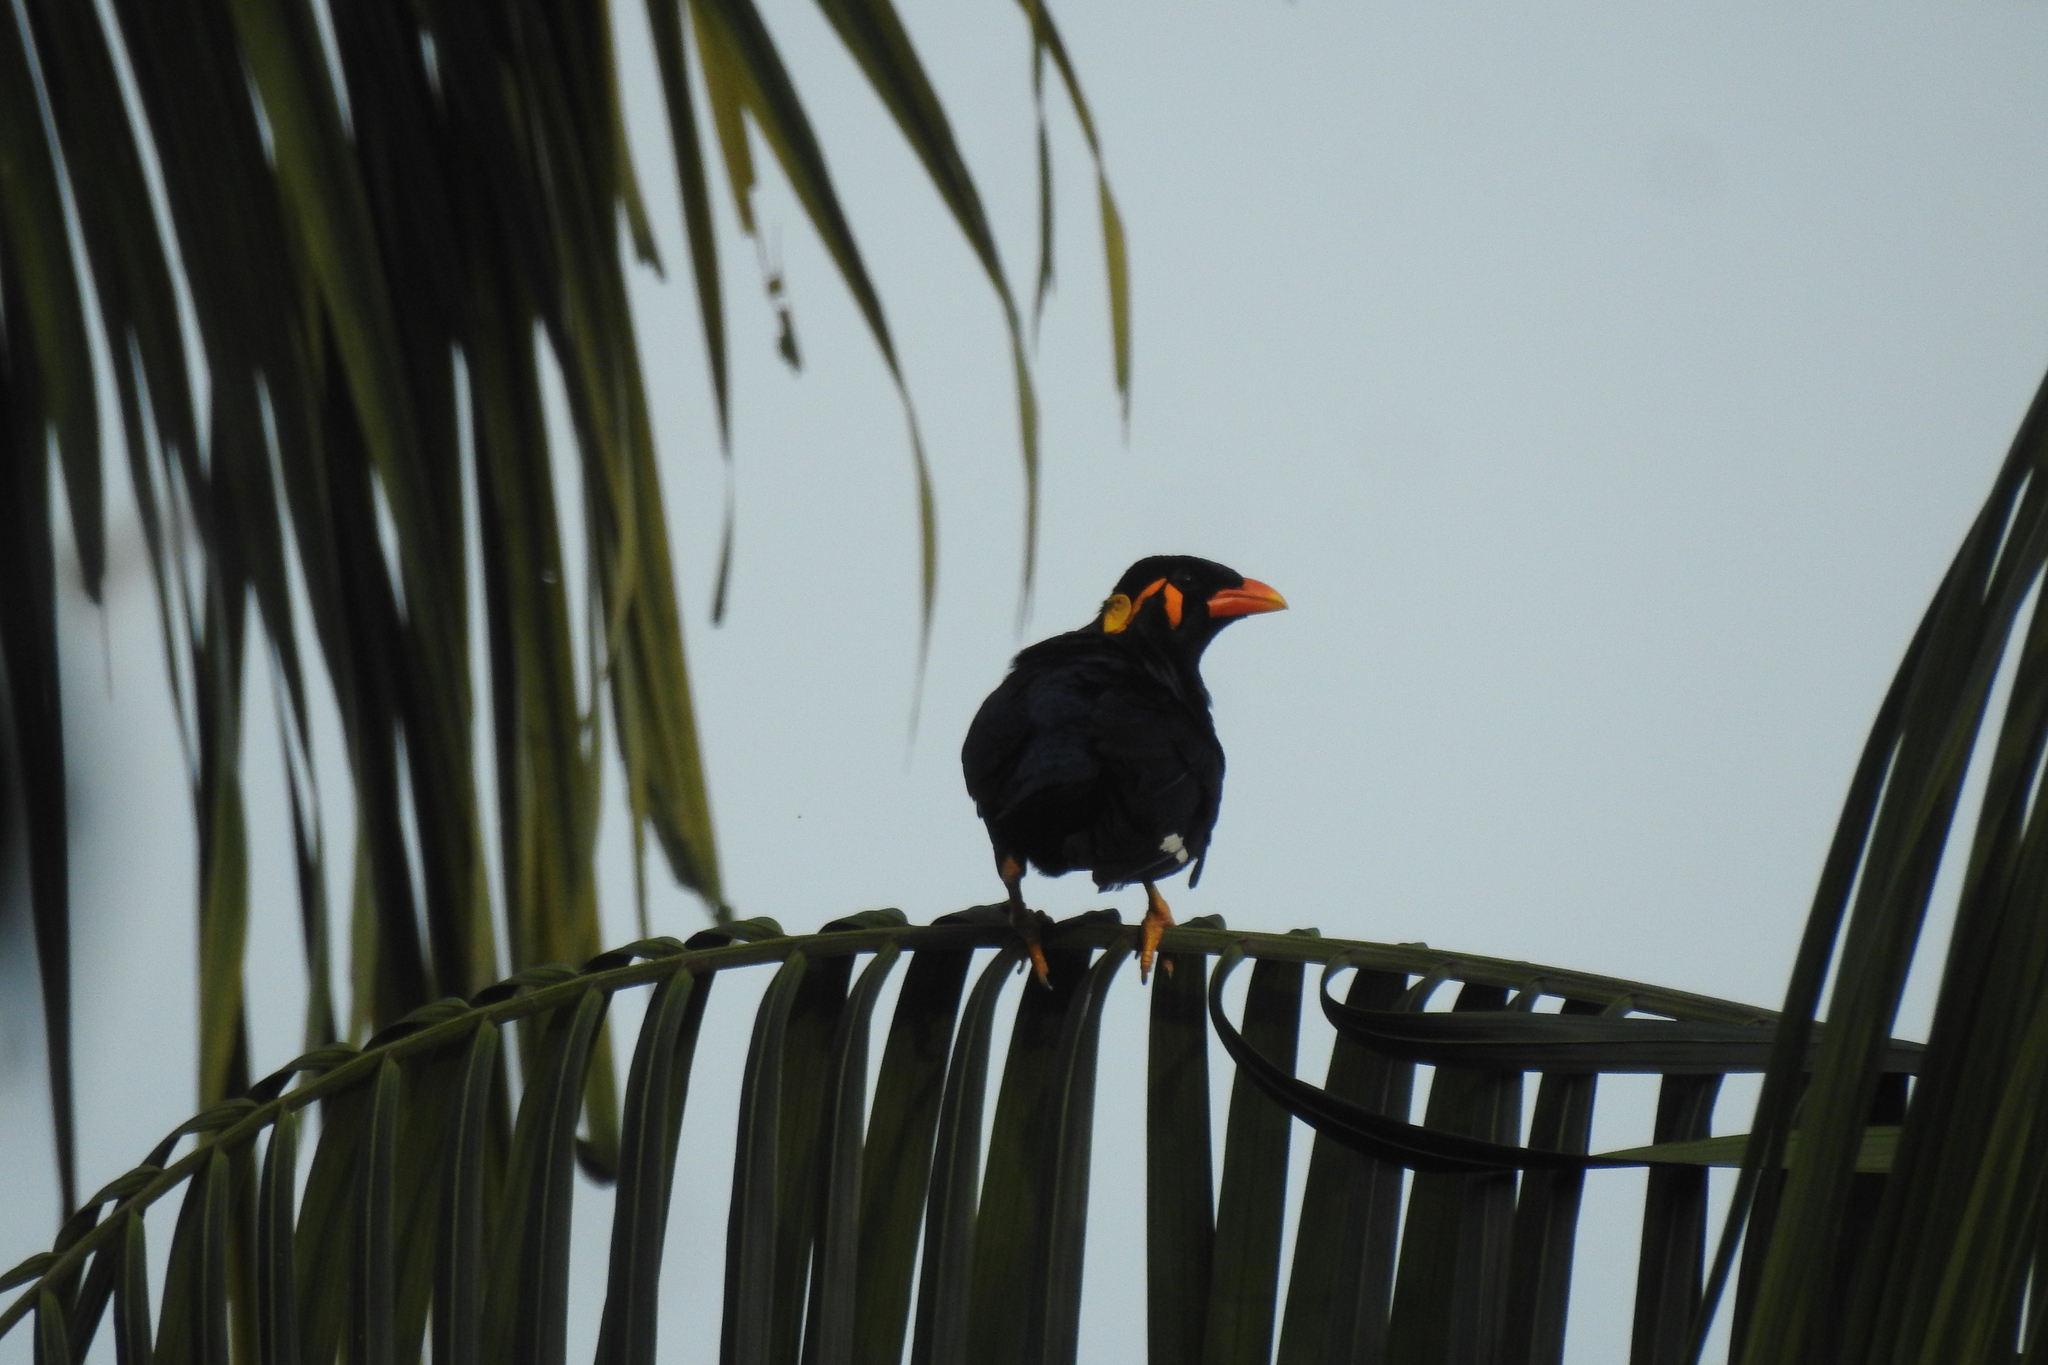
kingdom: Animalia
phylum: Chordata
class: Aves
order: Passeriformes
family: Sturnidae
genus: Gracula
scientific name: Gracula religiosa
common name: Common hill myna
